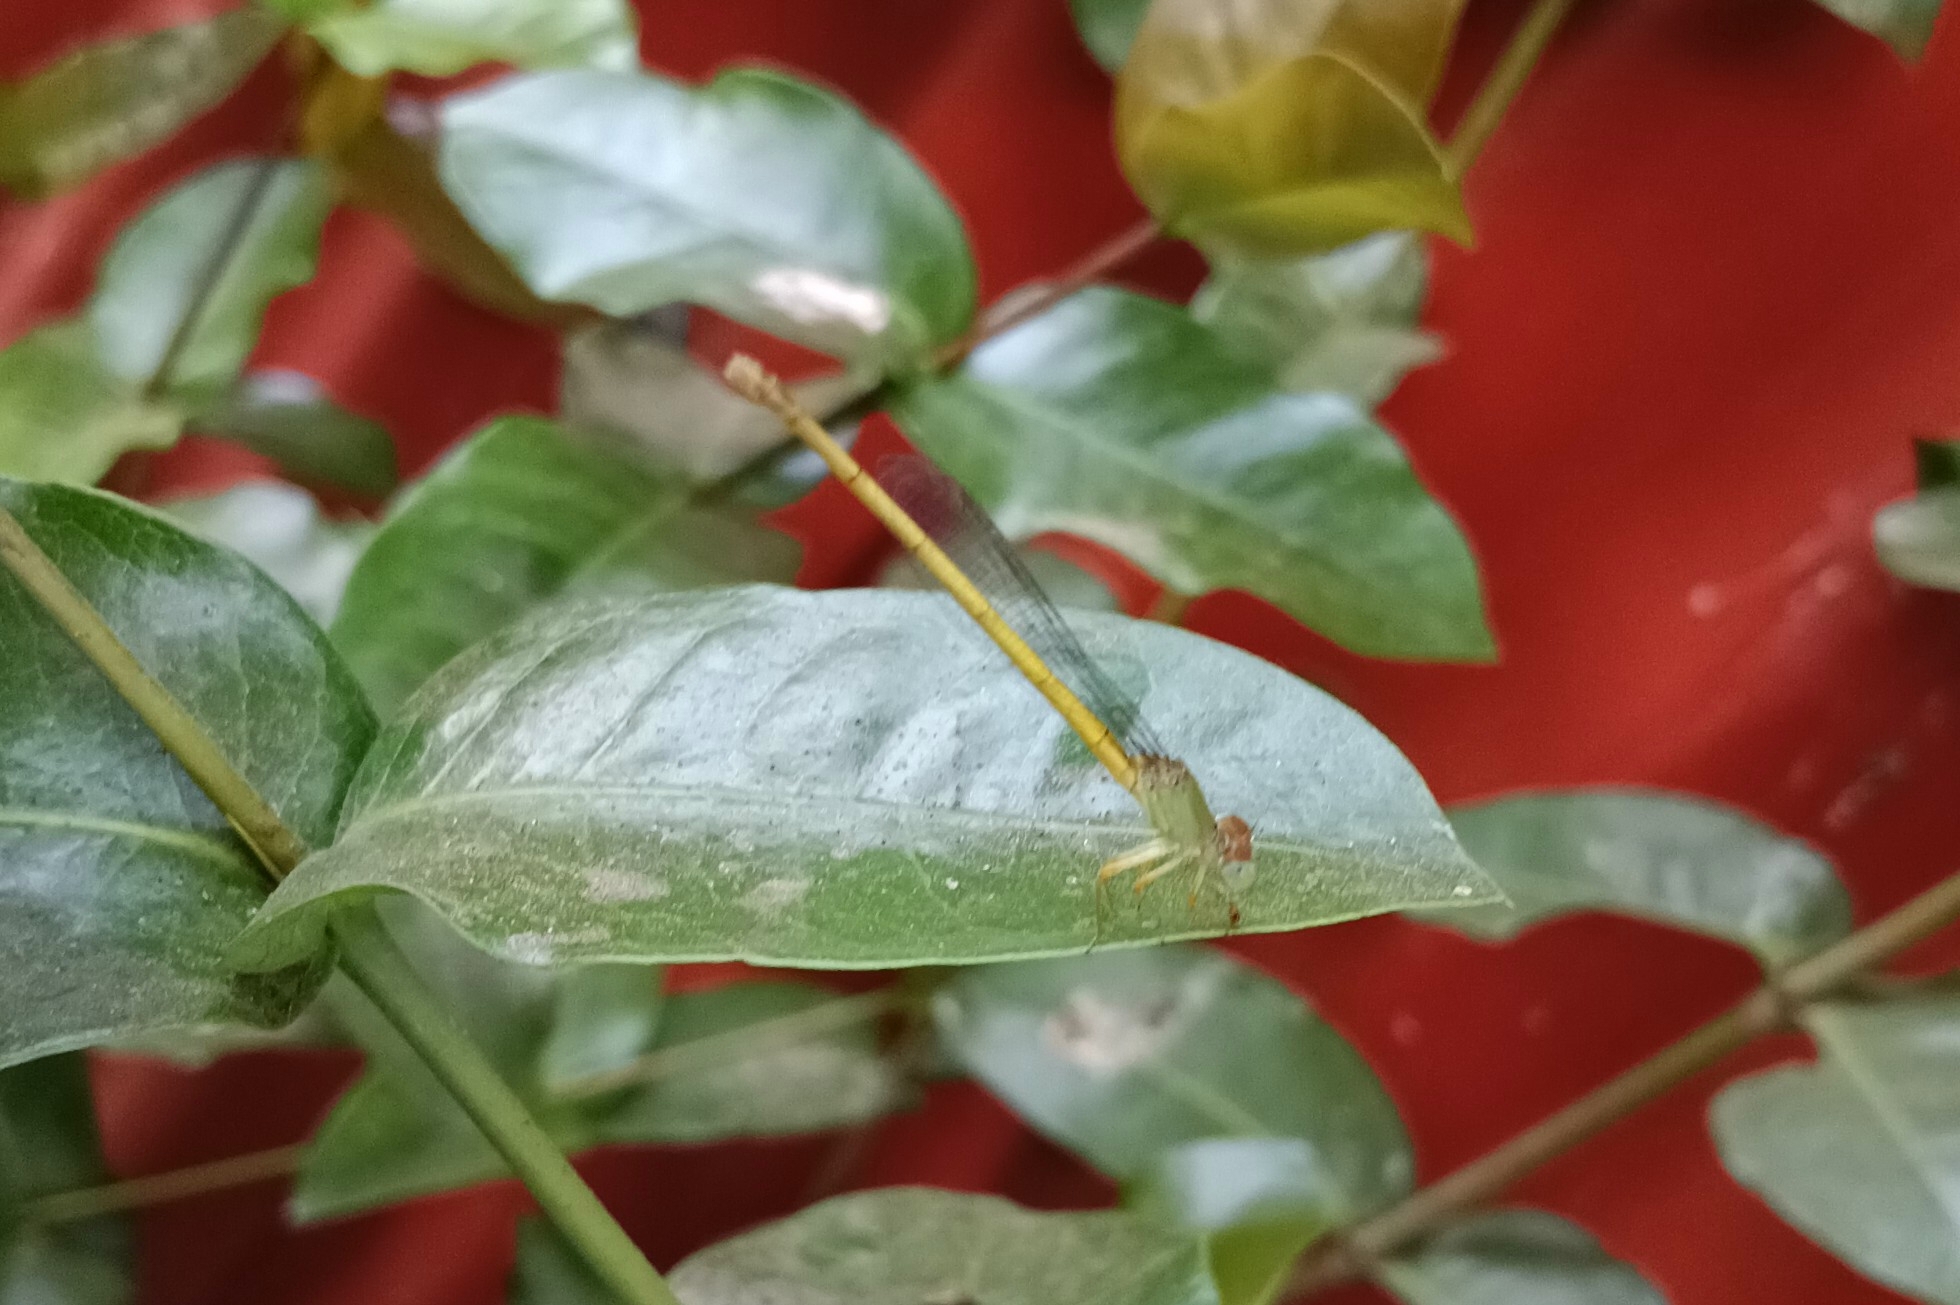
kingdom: Animalia
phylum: Arthropoda
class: Insecta
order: Odonata
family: Coenagrionidae
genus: Ceriagrion
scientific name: Ceriagrion coromandelianum
